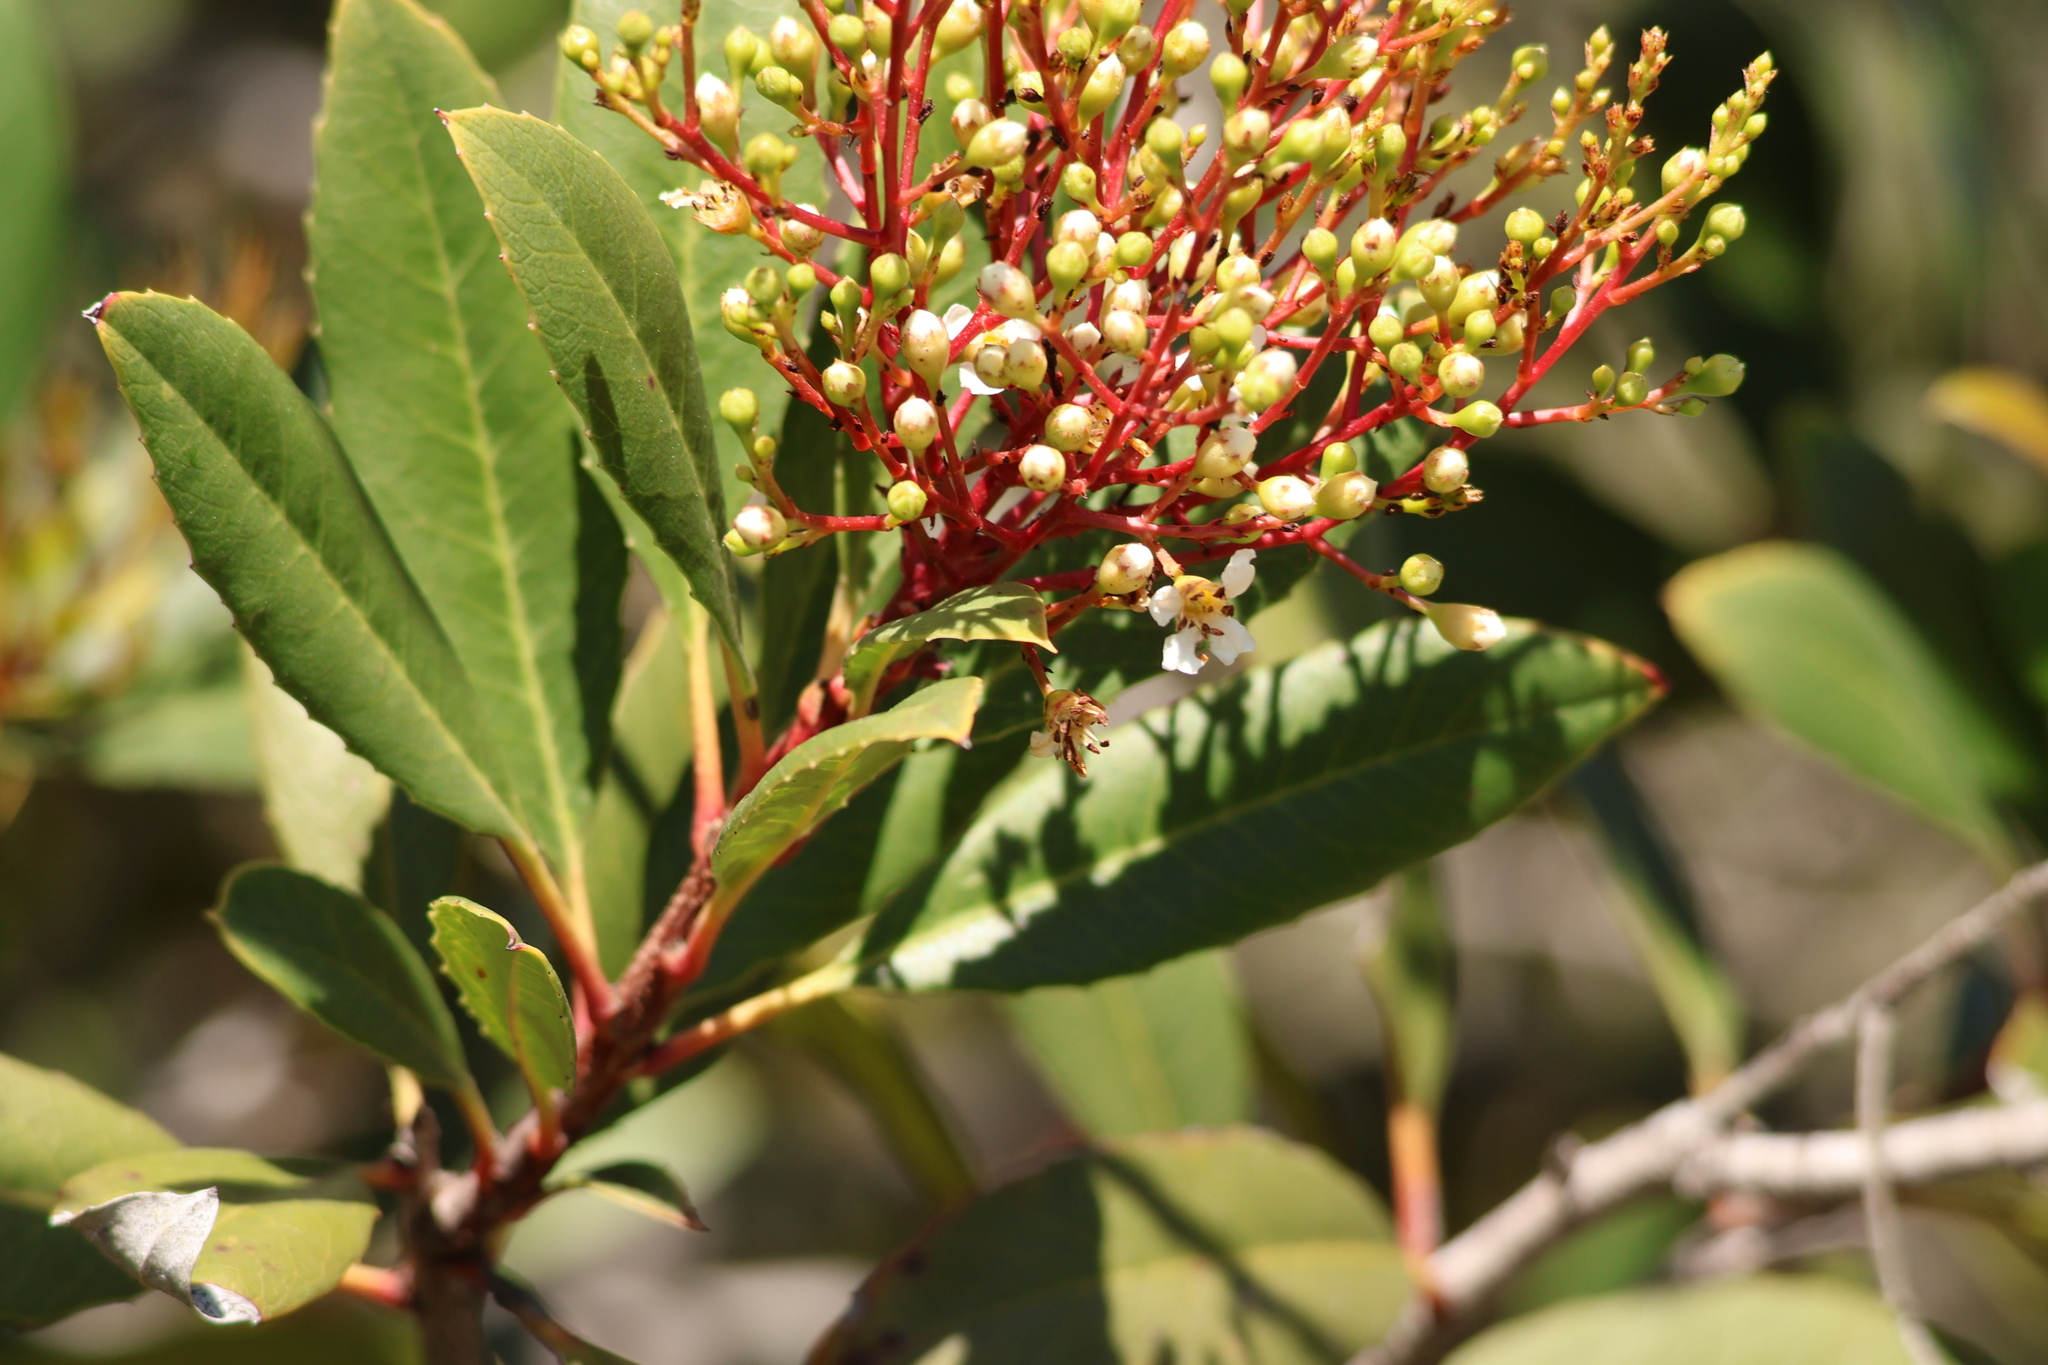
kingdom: Plantae
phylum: Tracheophyta
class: Magnoliopsida
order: Rosales
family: Rosaceae
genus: Heteromeles
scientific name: Heteromeles arbutifolia
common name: California-holly
